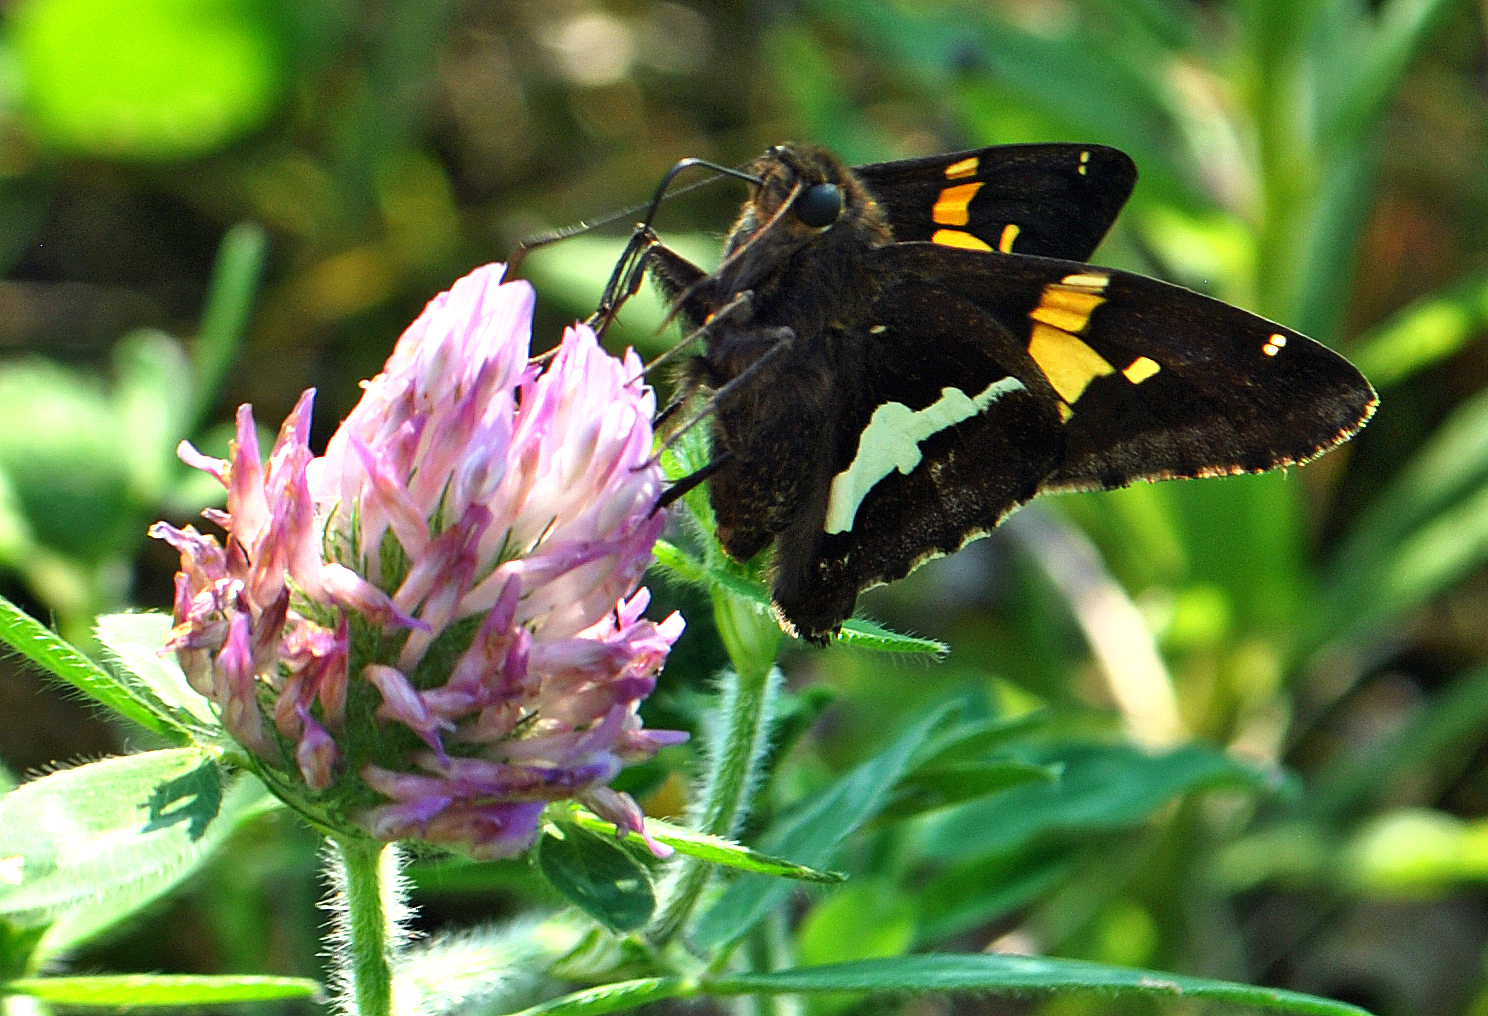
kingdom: Animalia
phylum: Arthropoda
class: Insecta
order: Lepidoptera
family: Hesperiidae
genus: Epargyreus
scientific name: Epargyreus clarus
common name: Silver-spotted skipper
